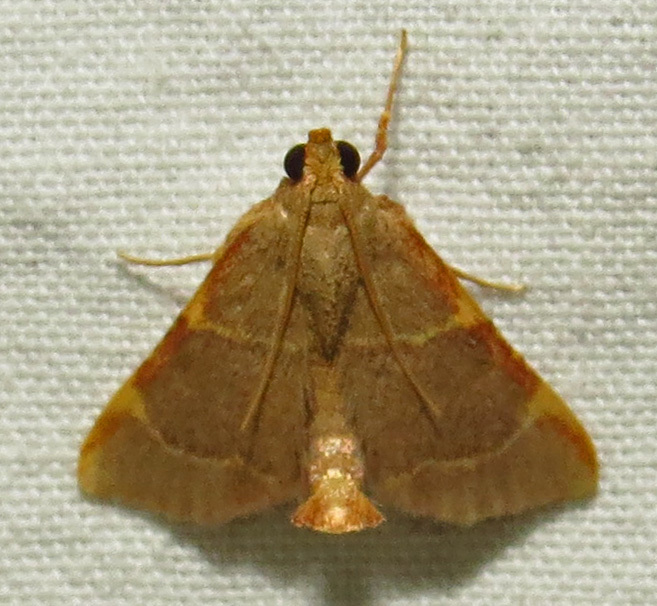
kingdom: Animalia
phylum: Arthropoda
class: Insecta
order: Lepidoptera
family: Pyralidae
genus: Hypsopygia
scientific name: Hypsopygia binodulalis
